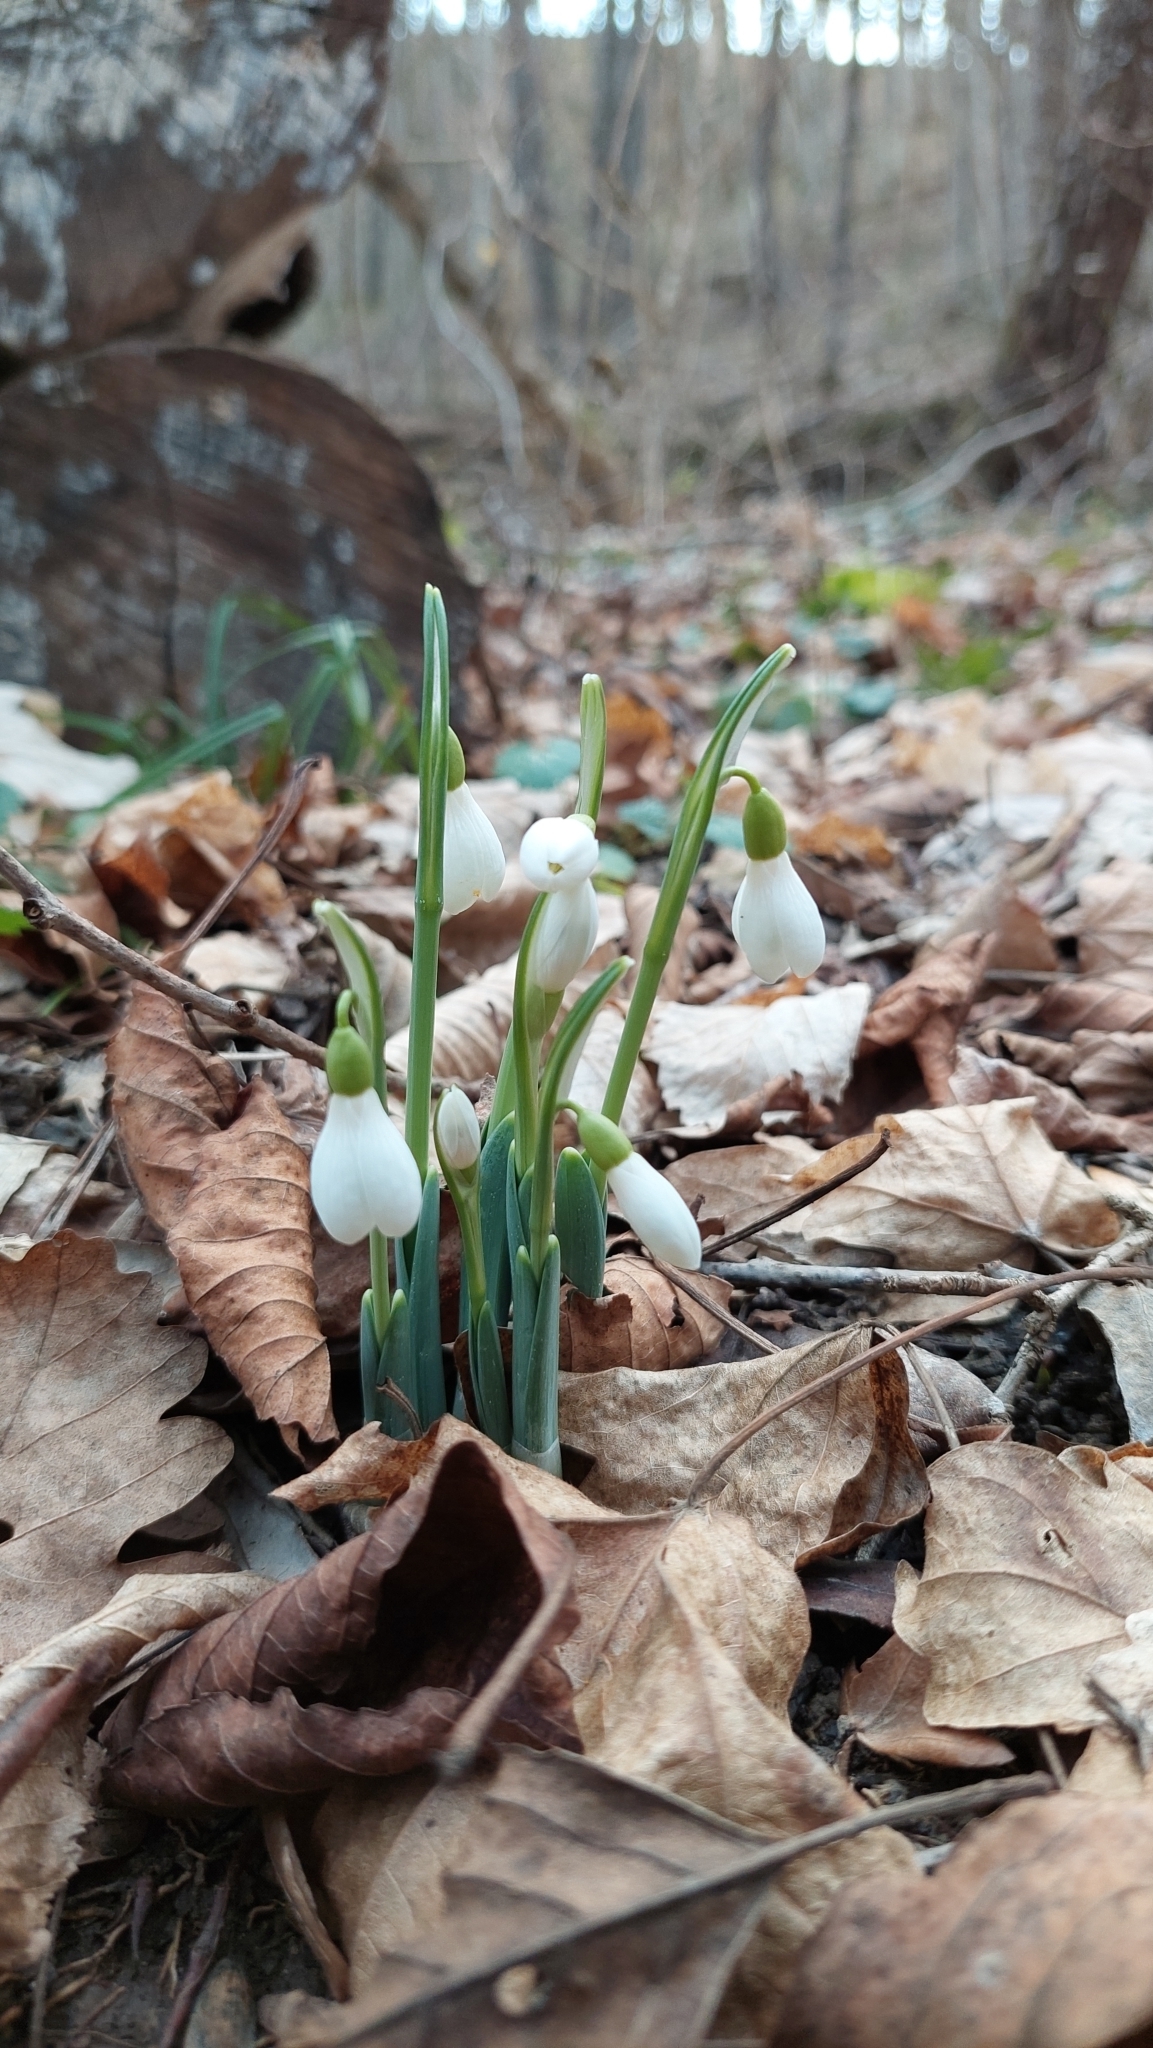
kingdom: Plantae
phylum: Tracheophyta
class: Liliopsida
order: Asparagales
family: Amaryllidaceae
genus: Galanthus
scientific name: Galanthus alpinus
